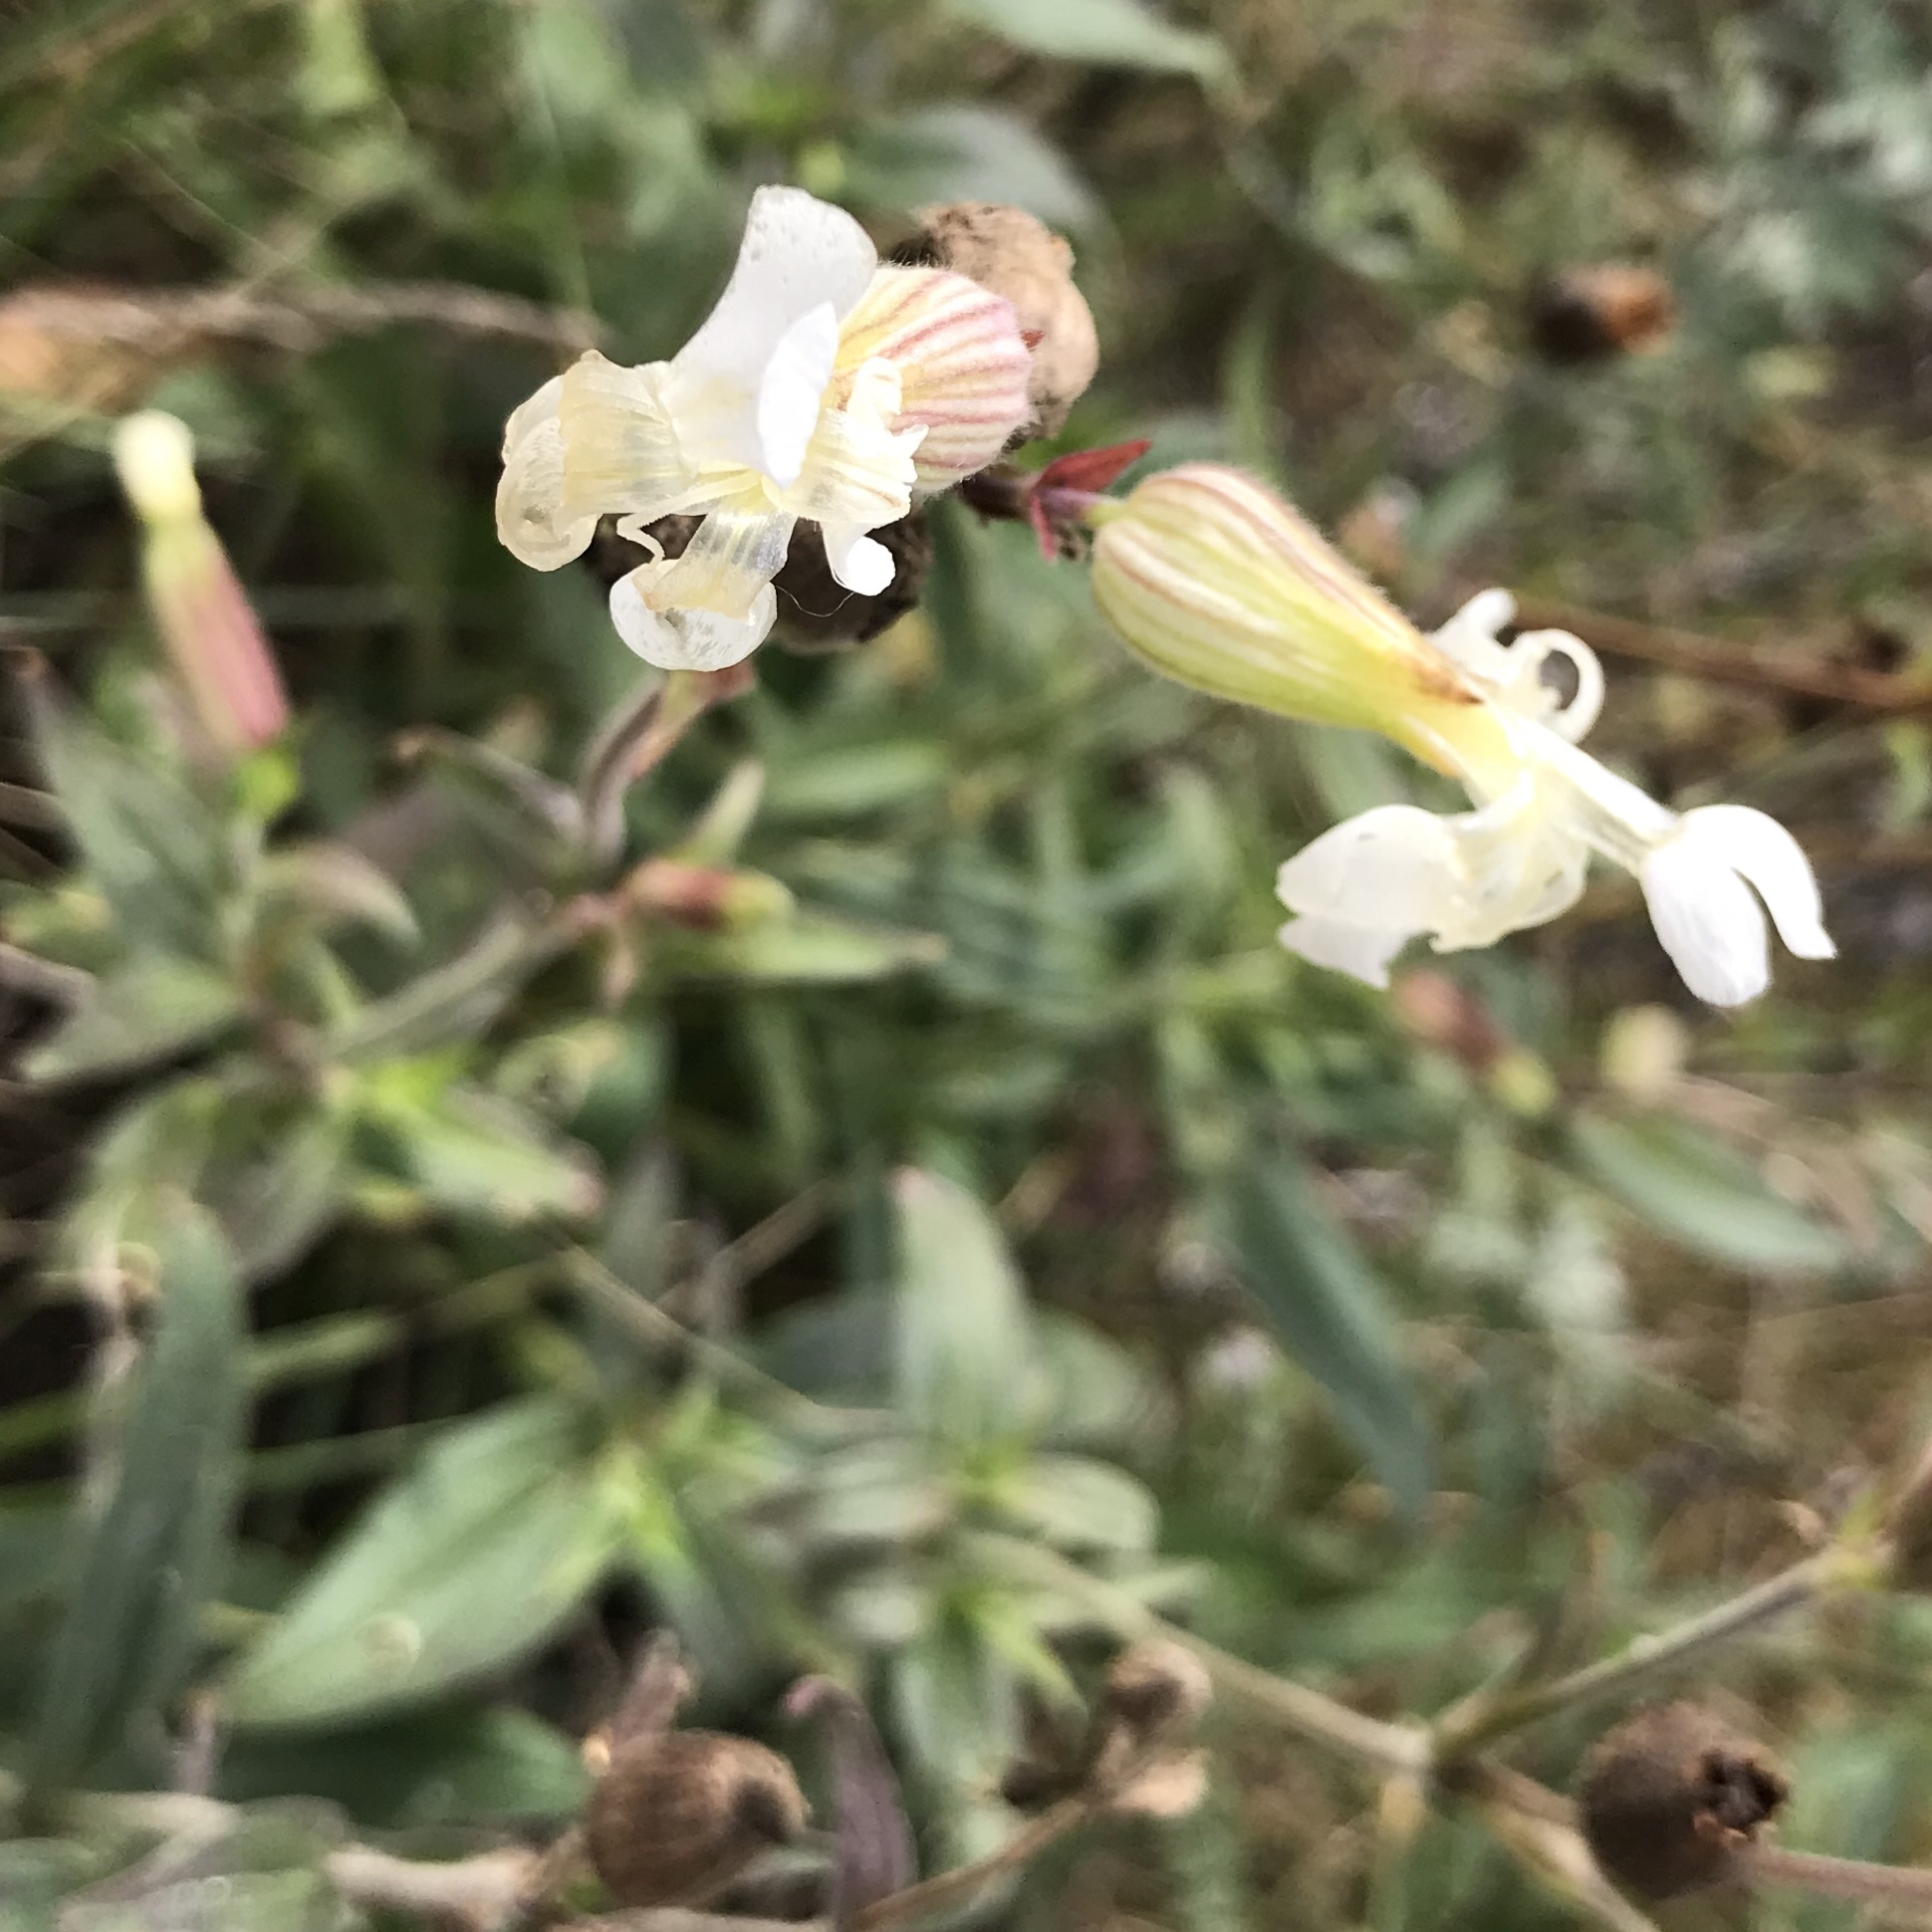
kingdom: Plantae
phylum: Tracheophyta
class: Magnoliopsida
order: Caryophyllales
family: Caryophyllaceae
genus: Silene
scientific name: Silene latifolia
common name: White campion
